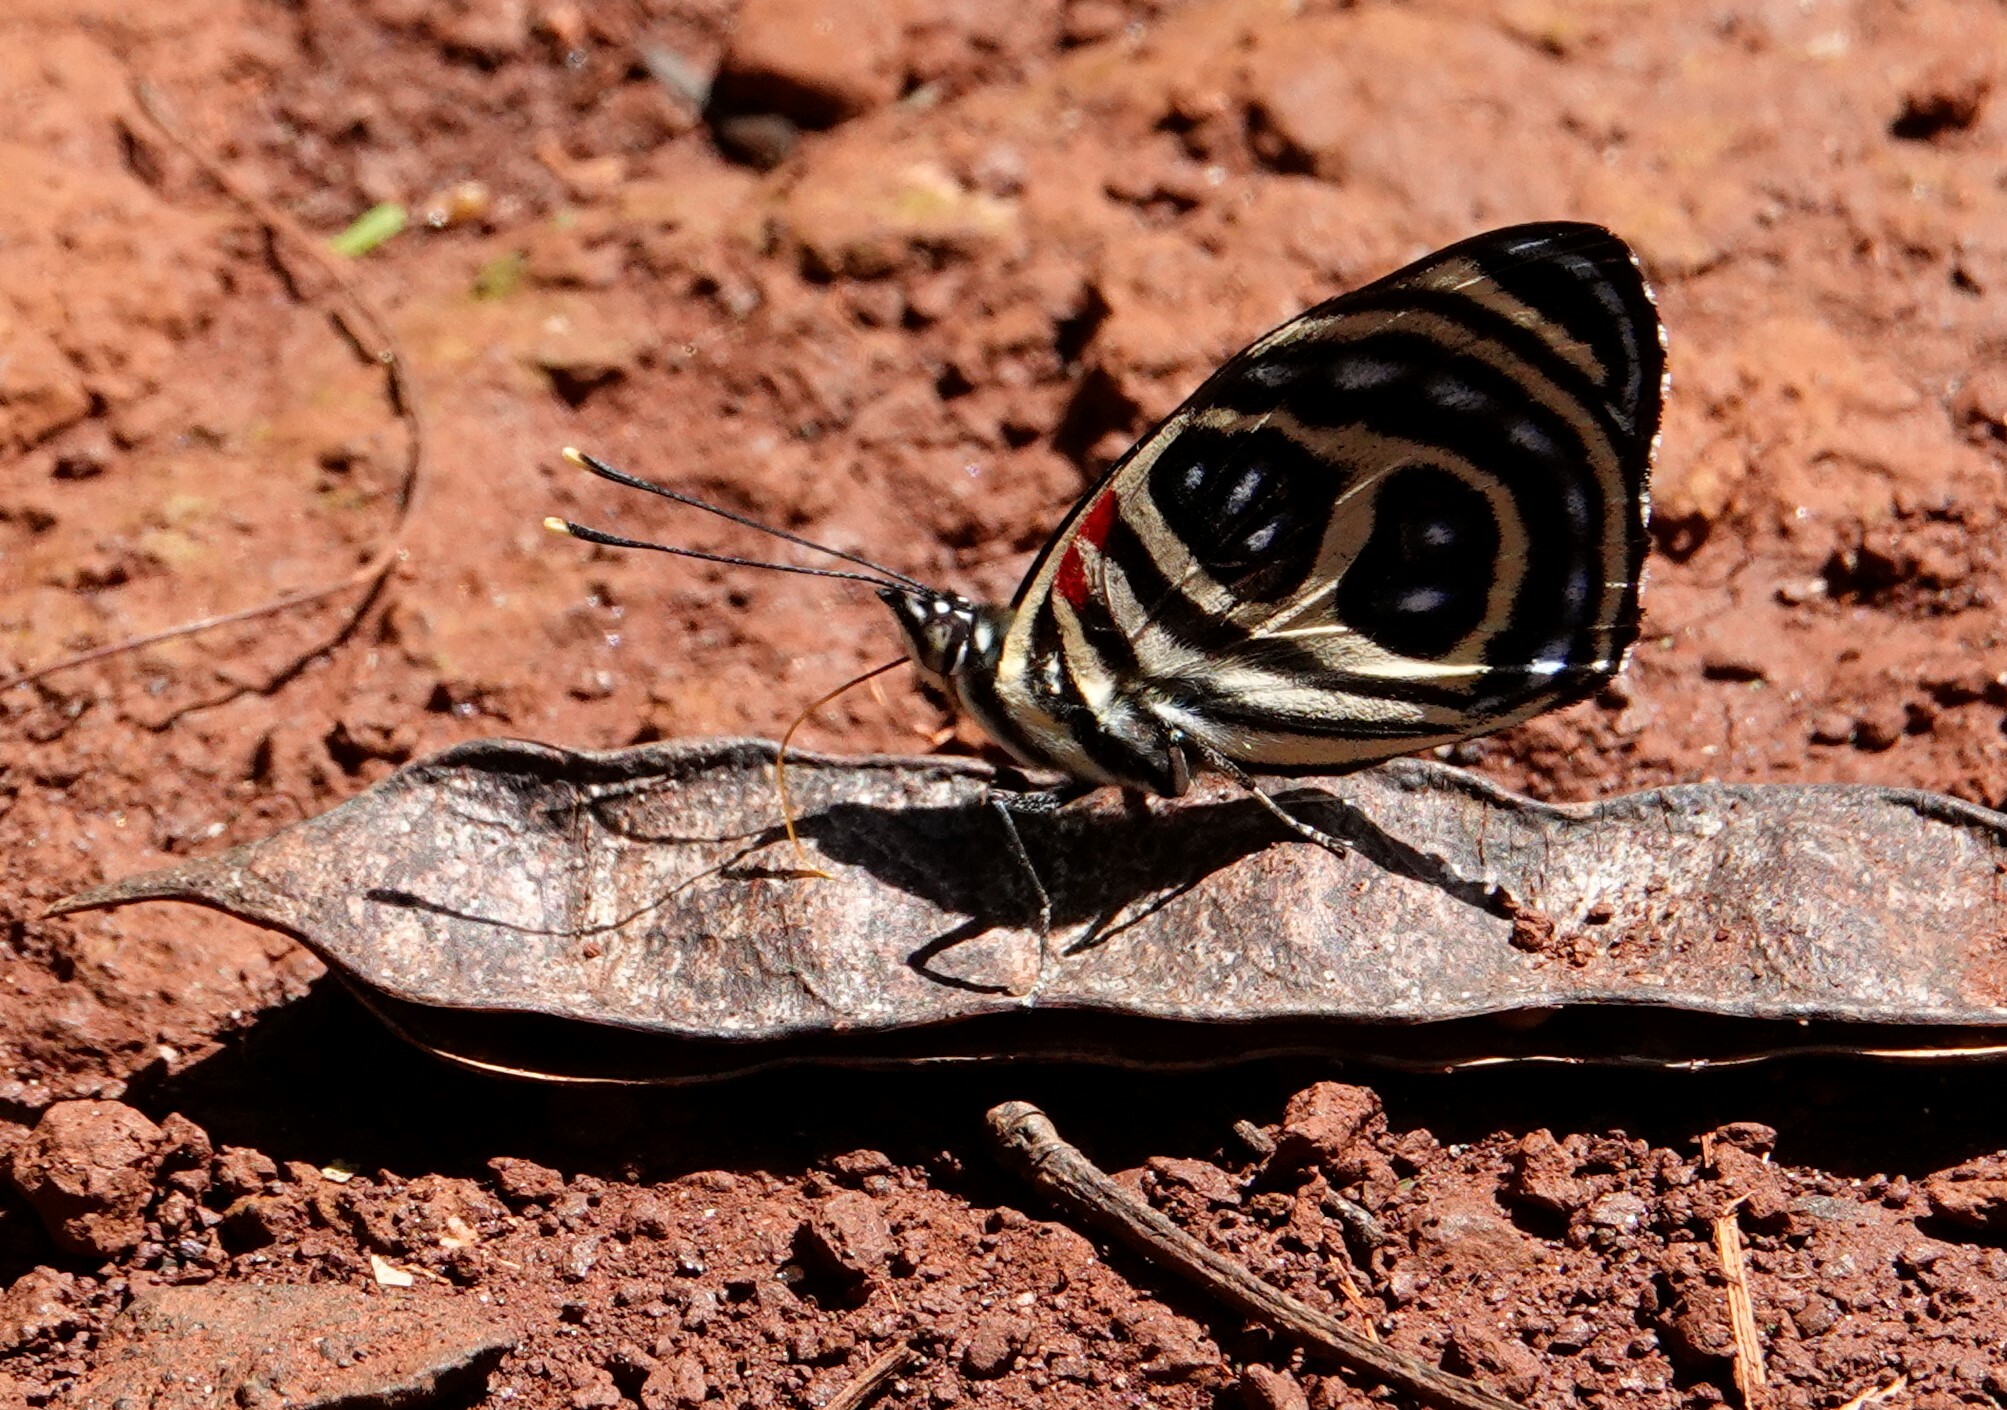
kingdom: Animalia
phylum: Arthropoda
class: Insecta
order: Lepidoptera
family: Nymphalidae
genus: Catagramma
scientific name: Catagramma pygas
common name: Godart's numberwing
